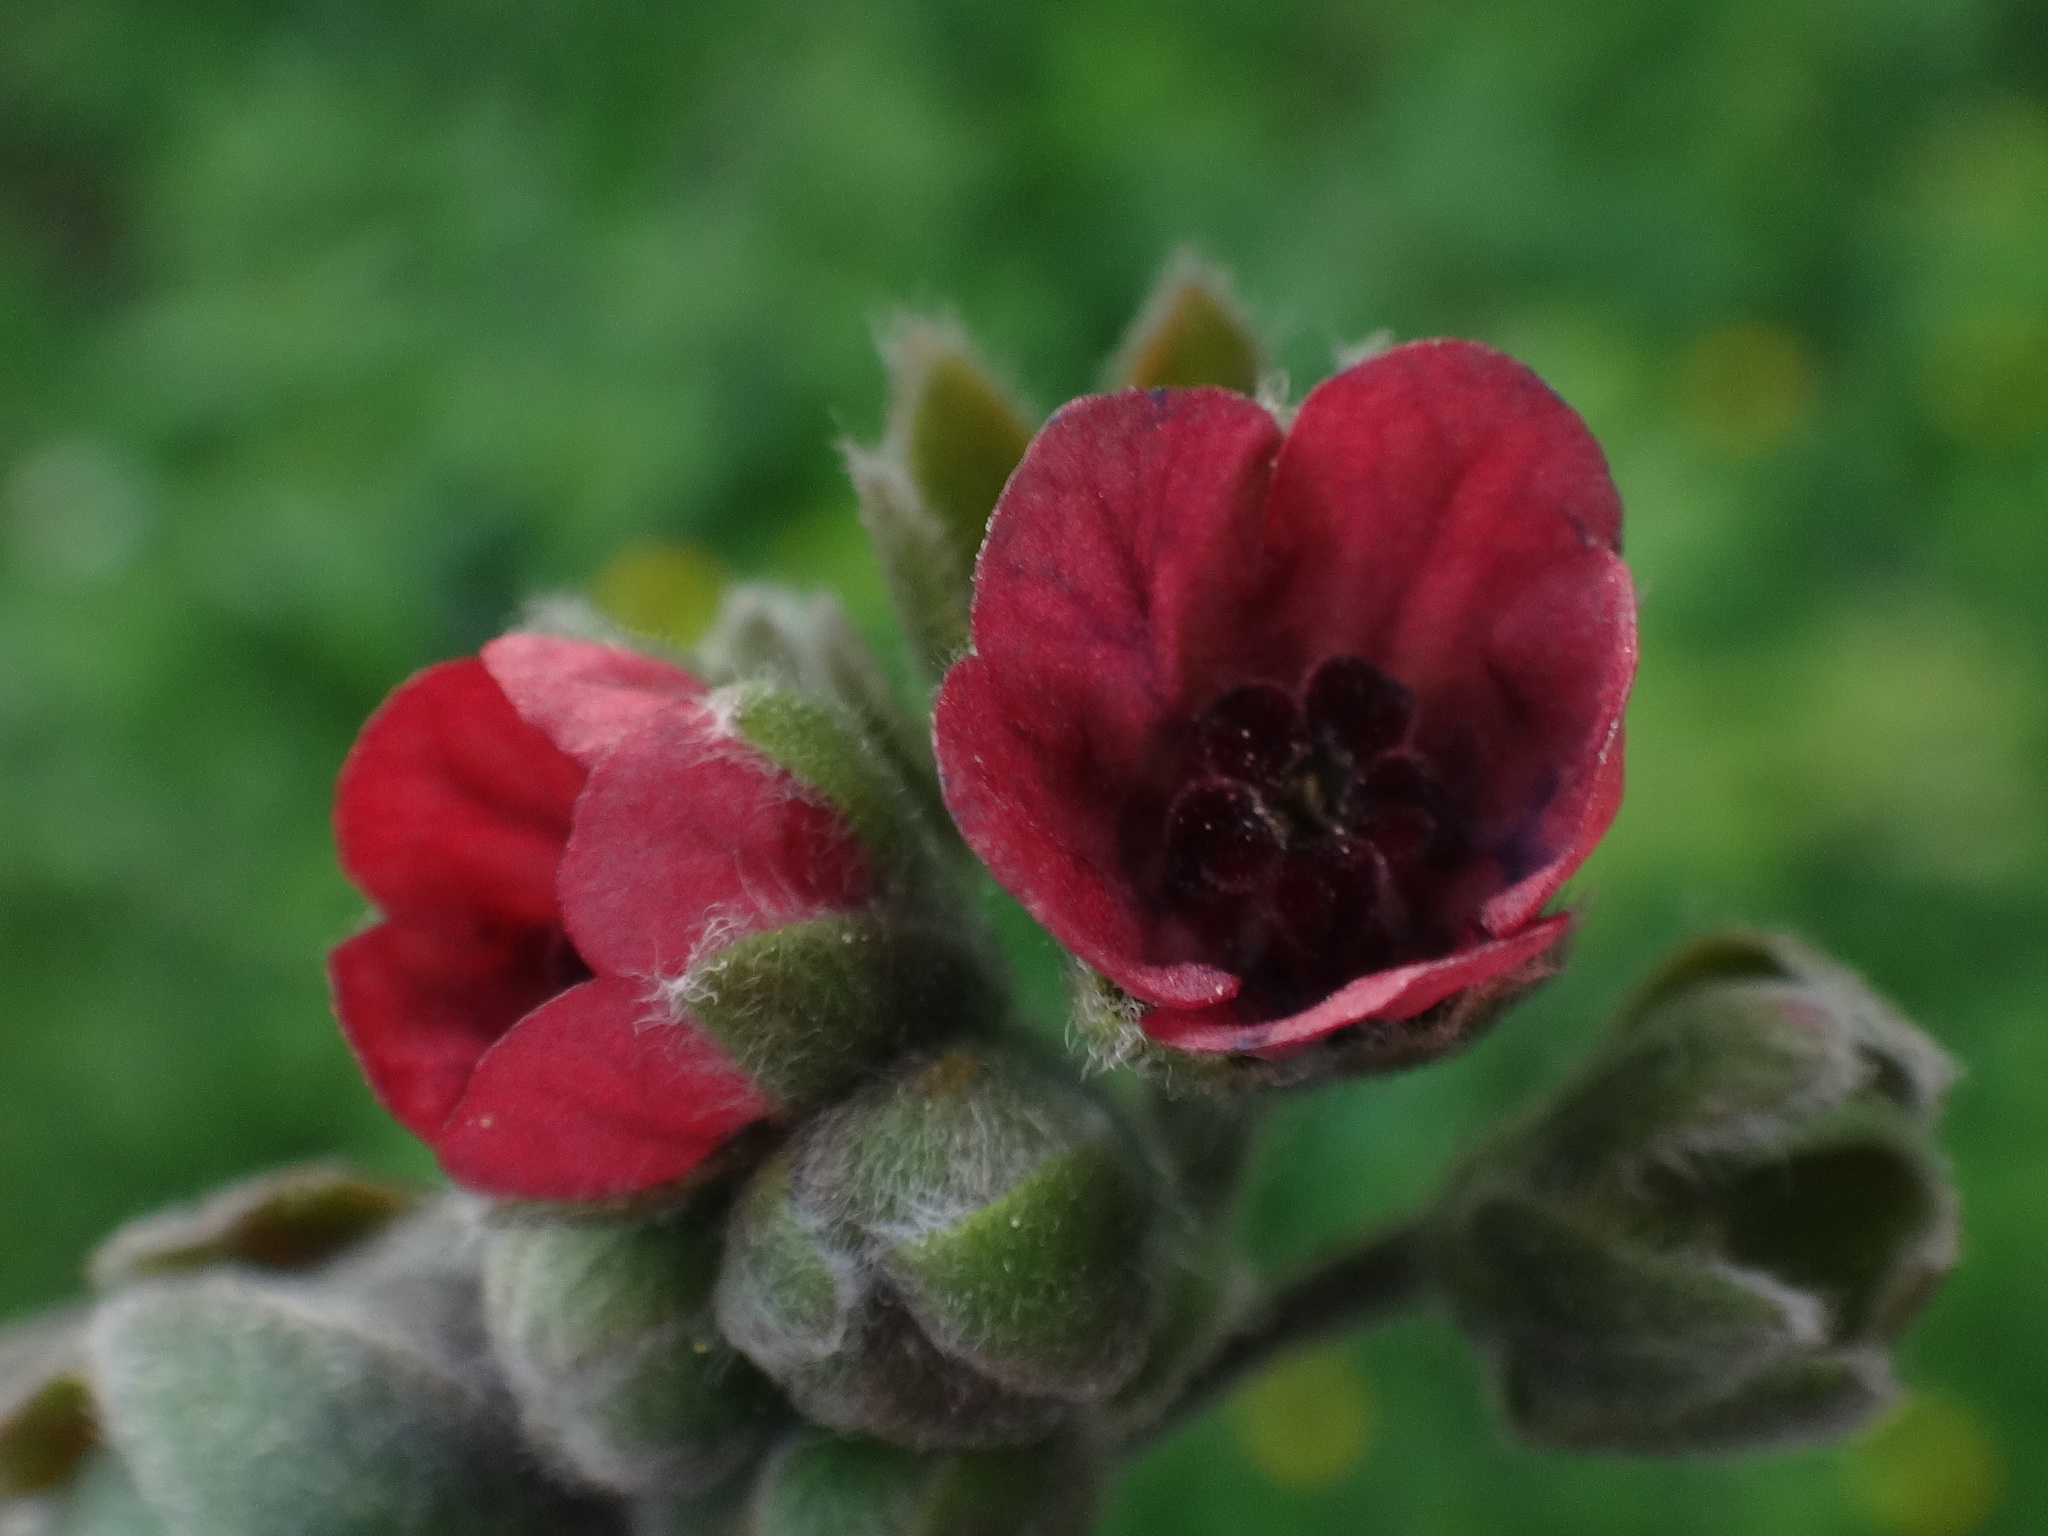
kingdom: Plantae
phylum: Tracheophyta
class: Magnoliopsida
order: Boraginales
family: Boraginaceae
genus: Cynoglossum
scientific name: Cynoglossum officinale
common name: Hound's-tongue
